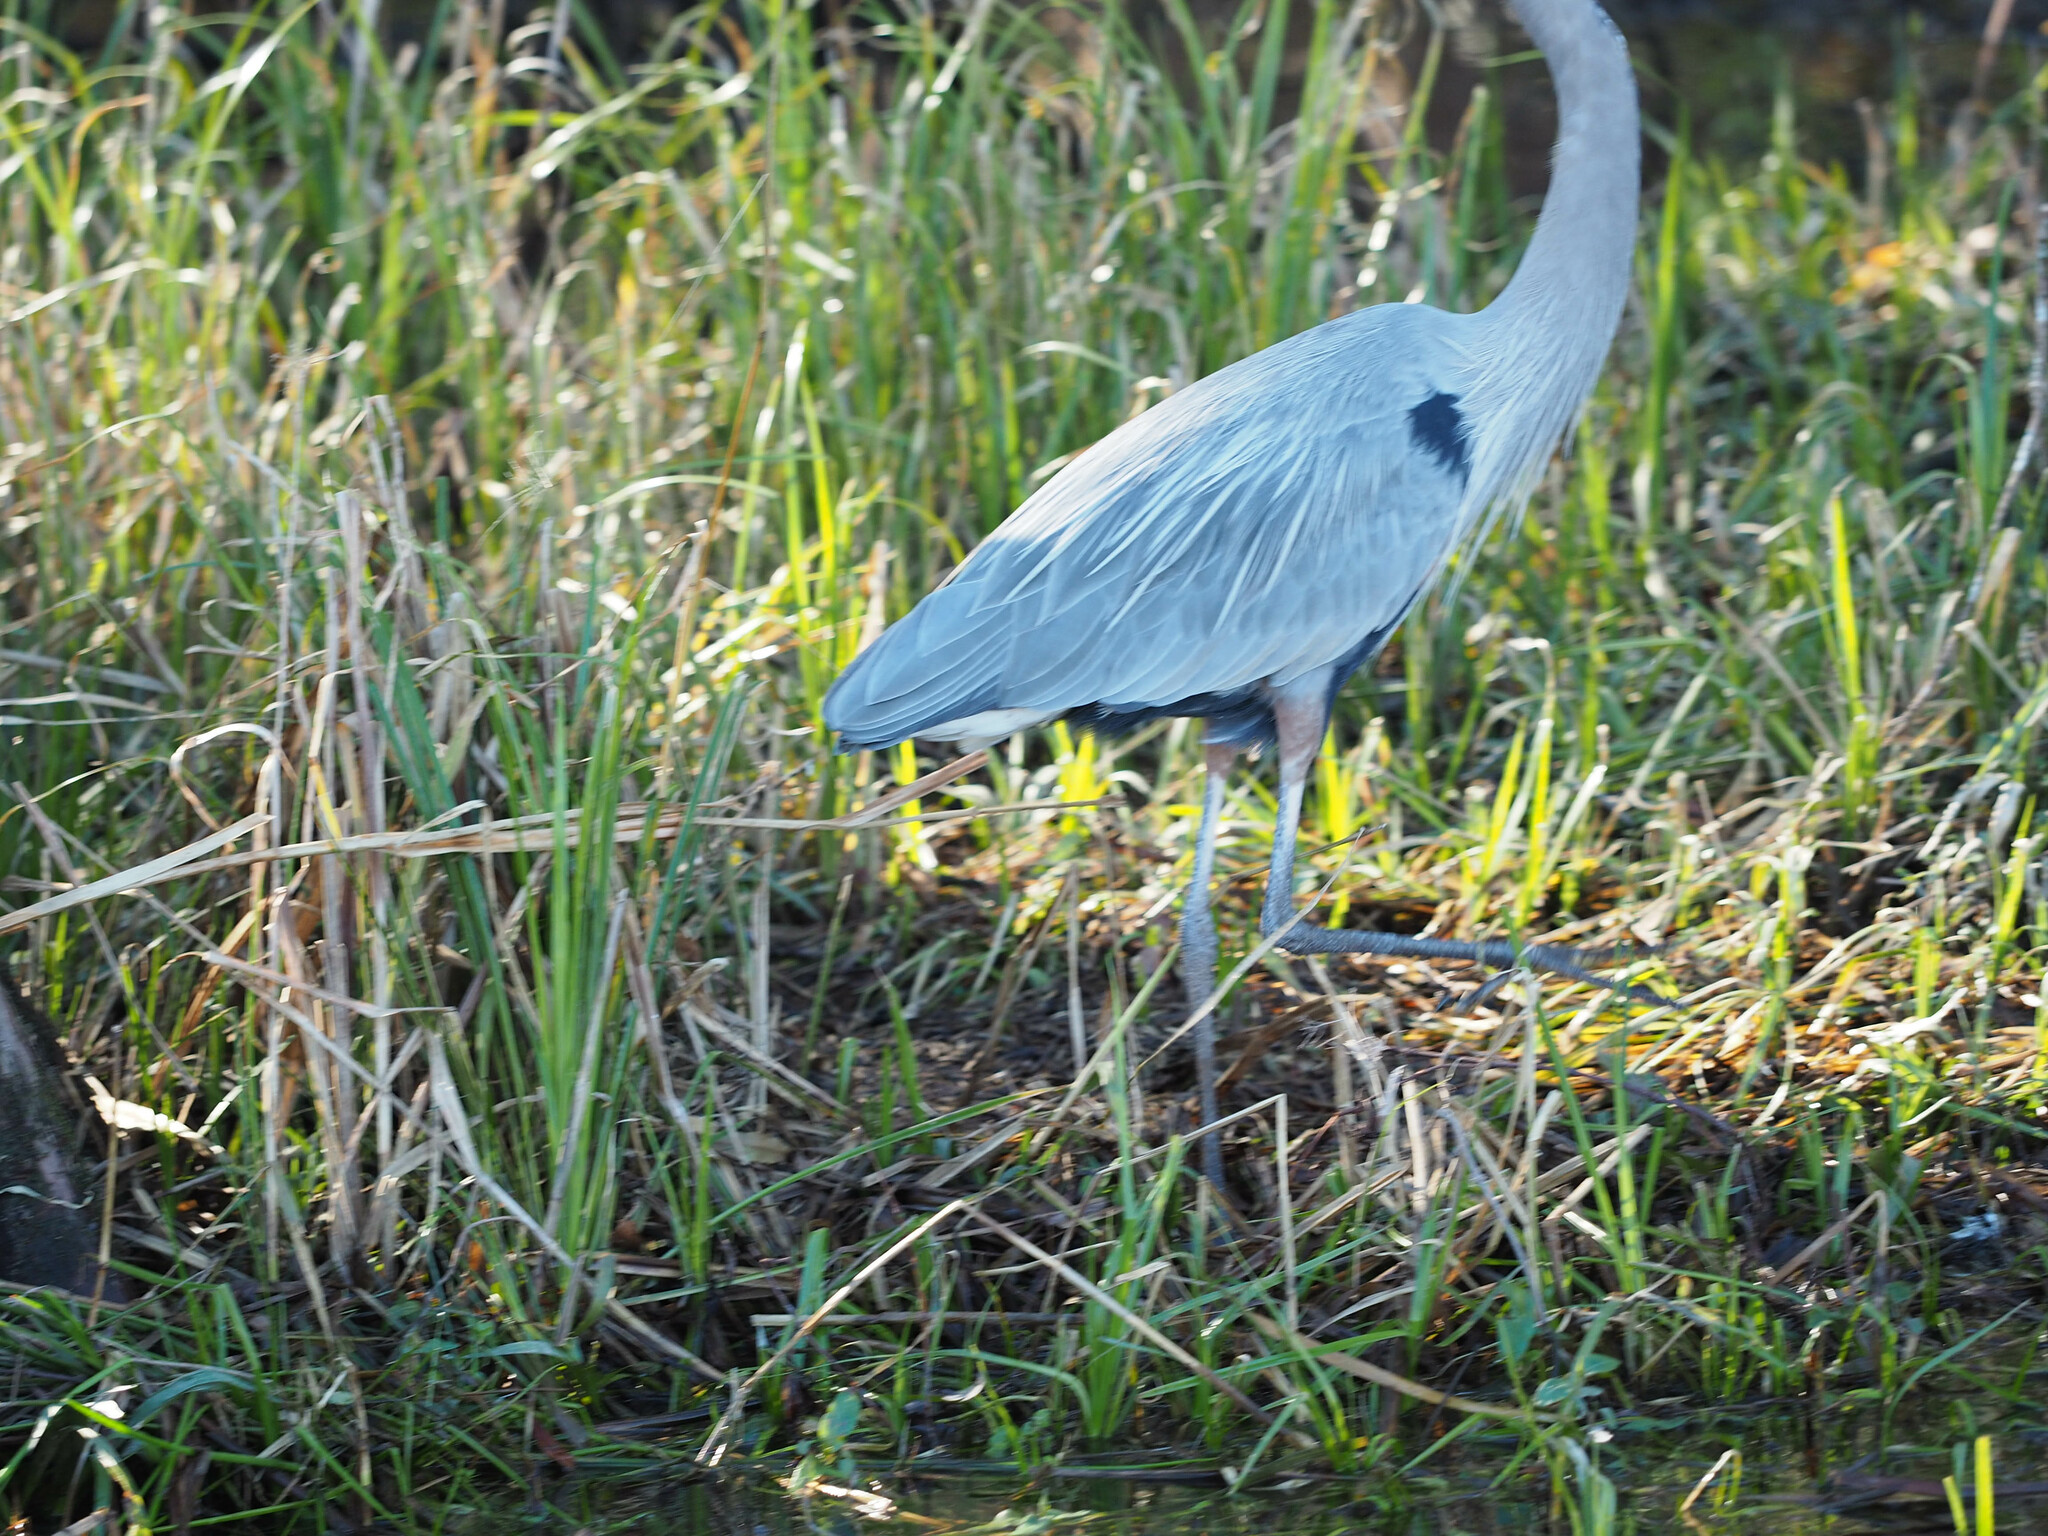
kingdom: Animalia
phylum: Chordata
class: Aves
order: Pelecaniformes
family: Ardeidae
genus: Ardea
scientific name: Ardea herodias
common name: Great blue heron
